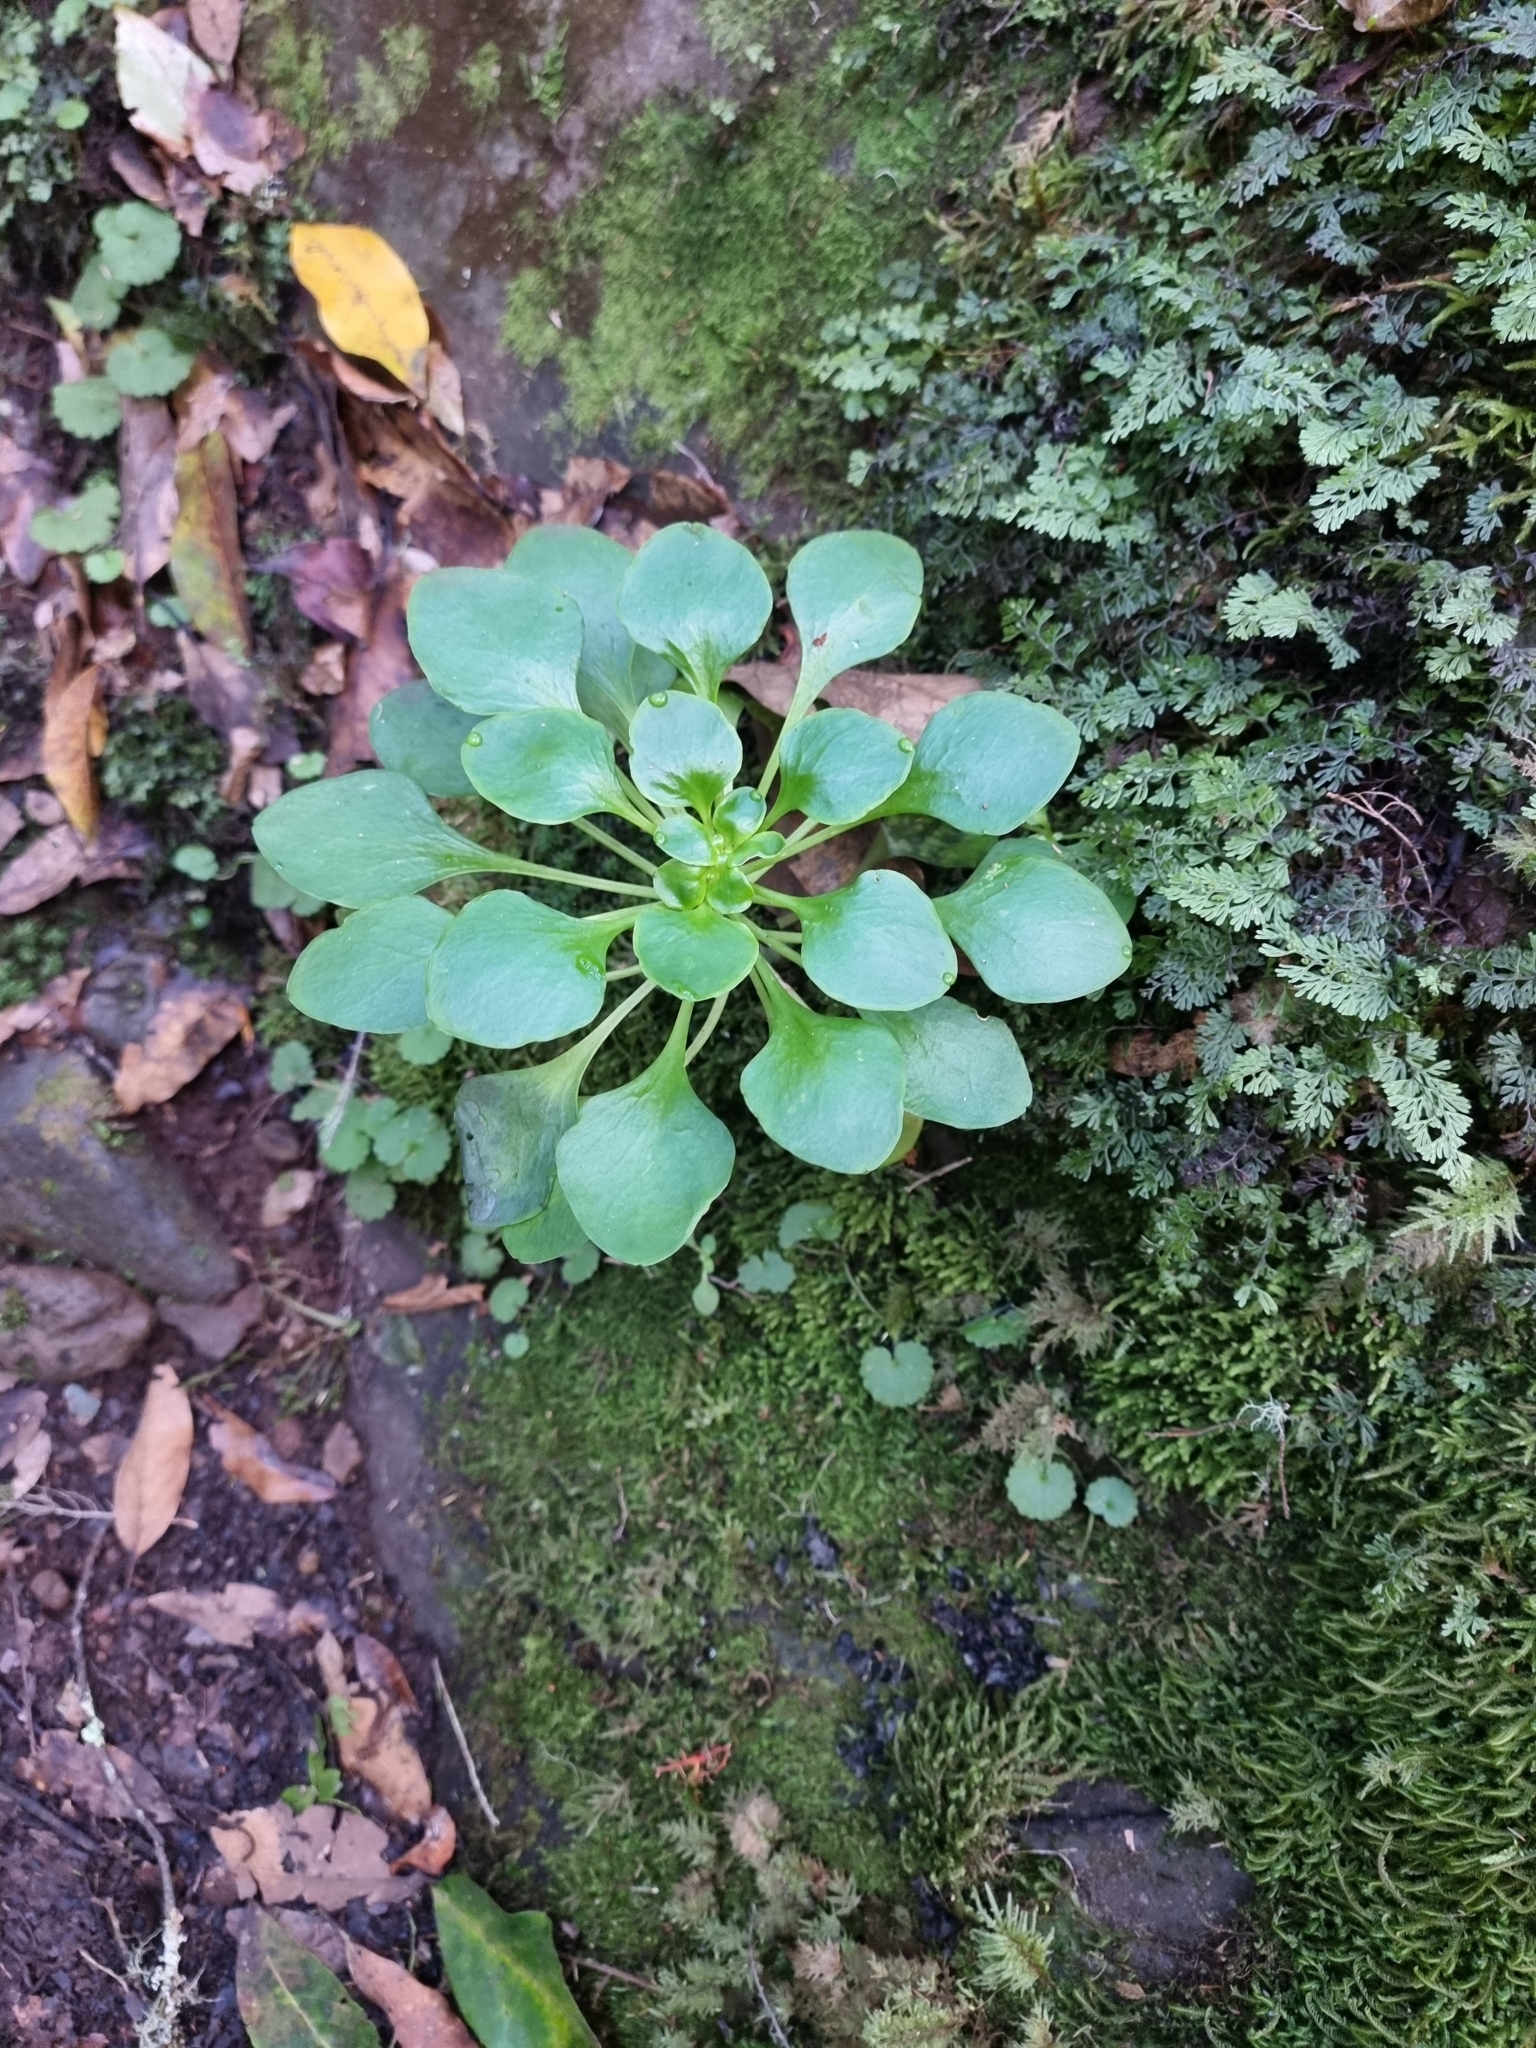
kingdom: Plantae
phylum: Tracheophyta
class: Magnoliopsida
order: Saxifragales
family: Crassulaceae
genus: Aichryson
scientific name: Aichryson divaricatum
